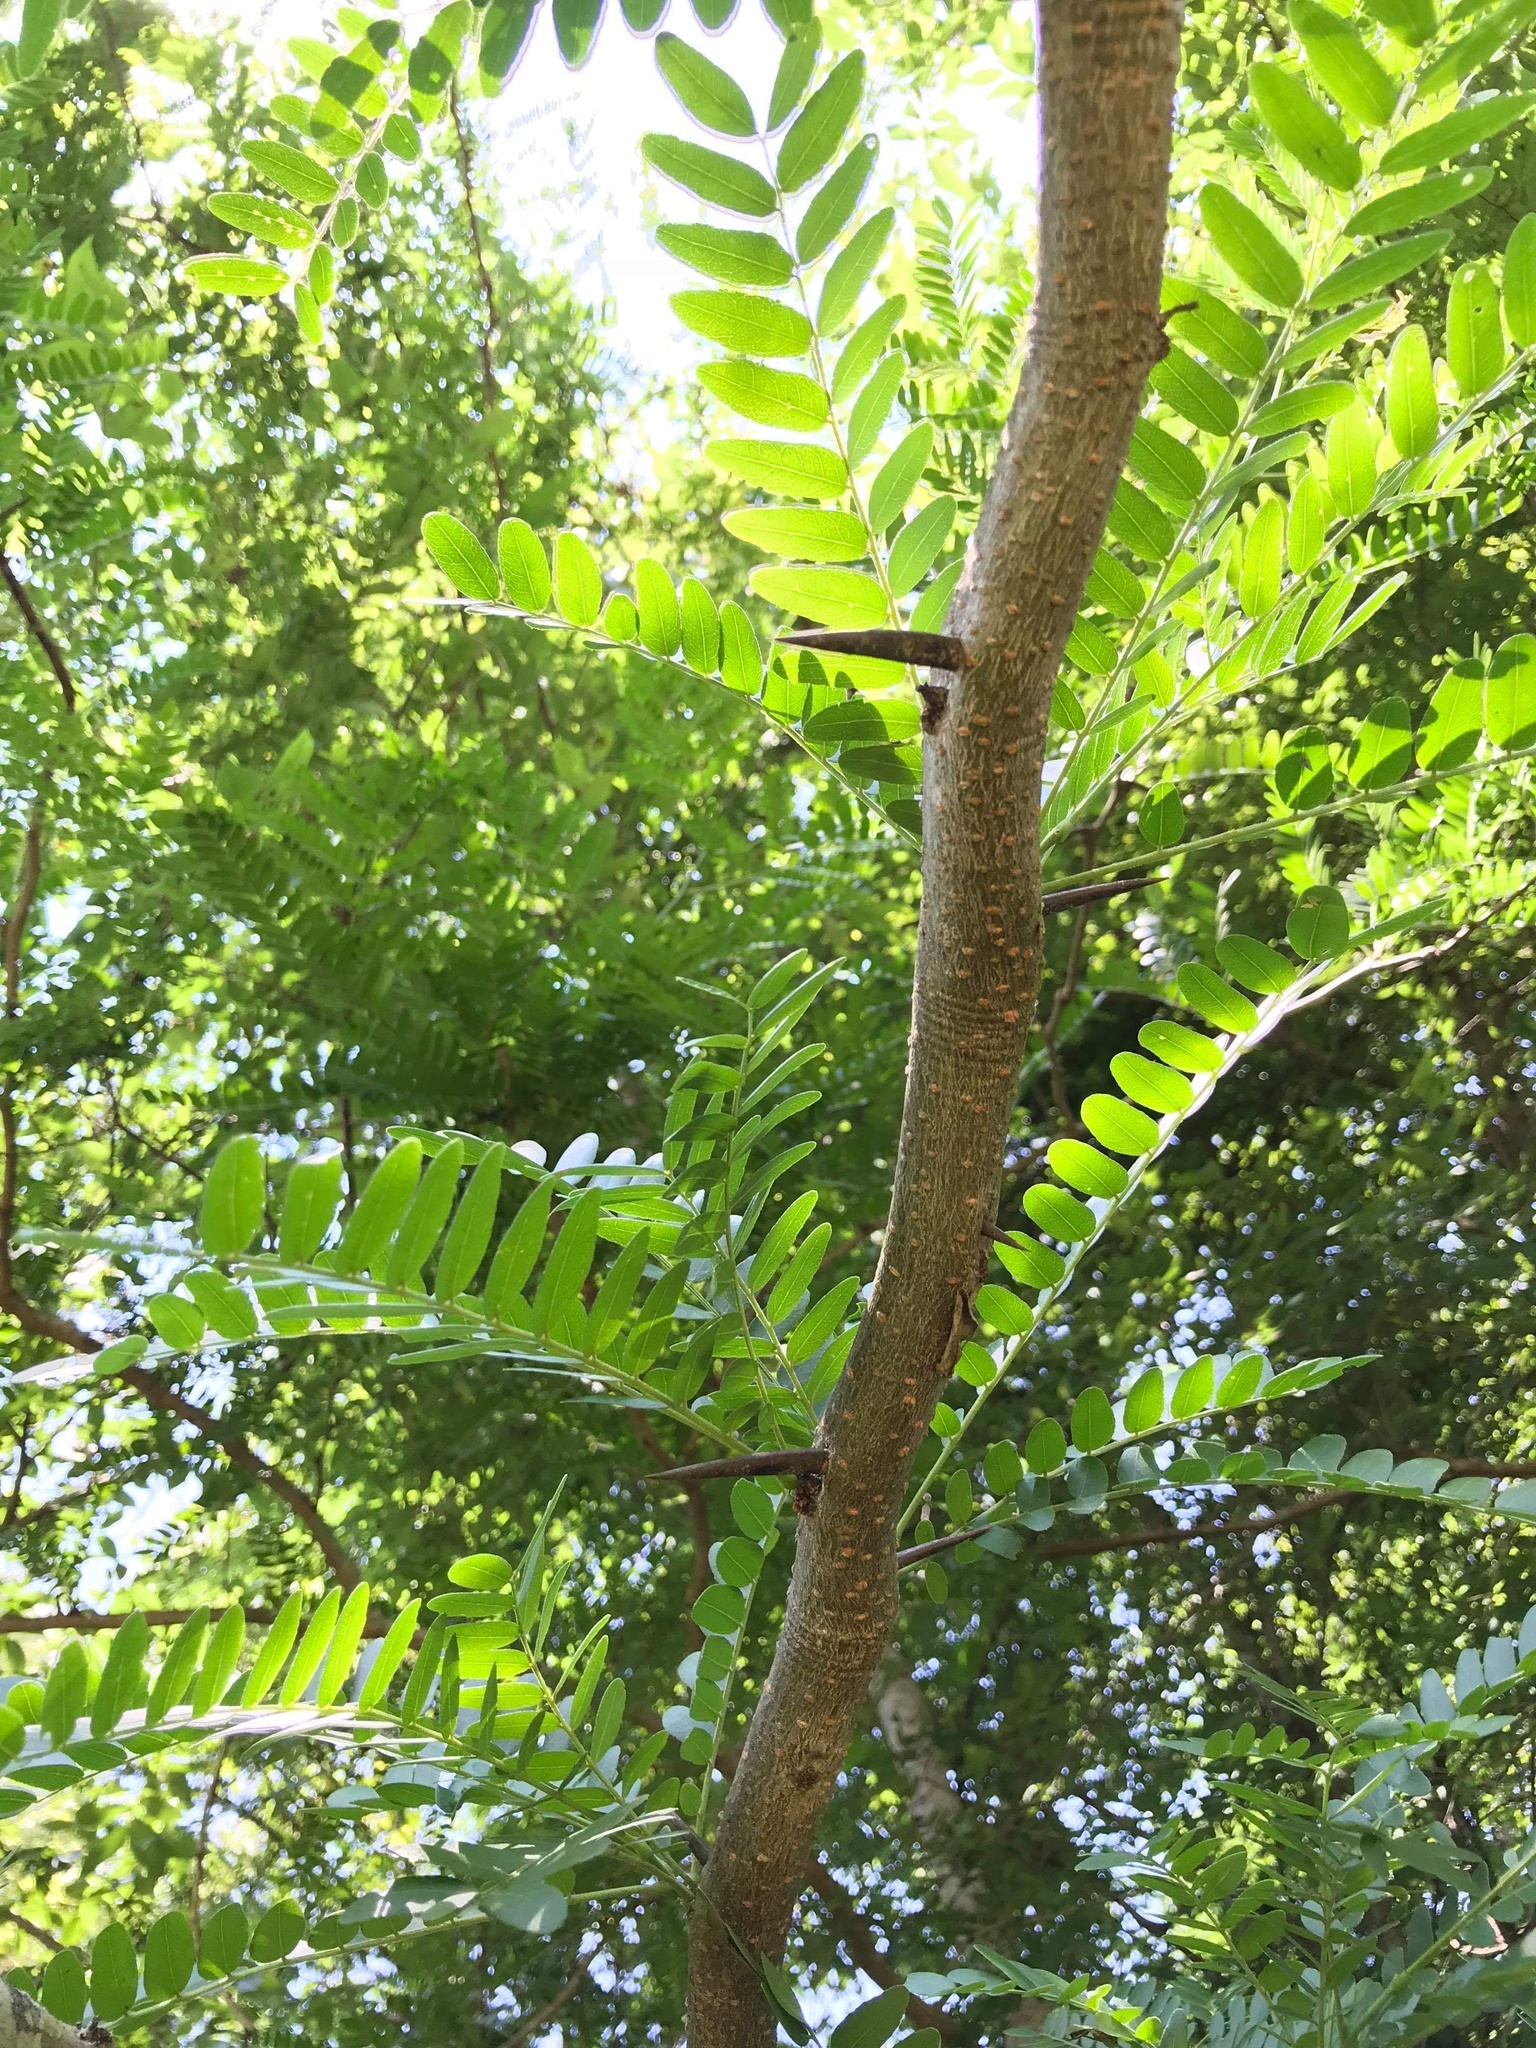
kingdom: Plantae
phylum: Tracheophyta
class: Magnoliopsida
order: Fabales
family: Fabaceae
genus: Gleditsia
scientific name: Gleditsia triacanthos
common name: Common honeylocust
